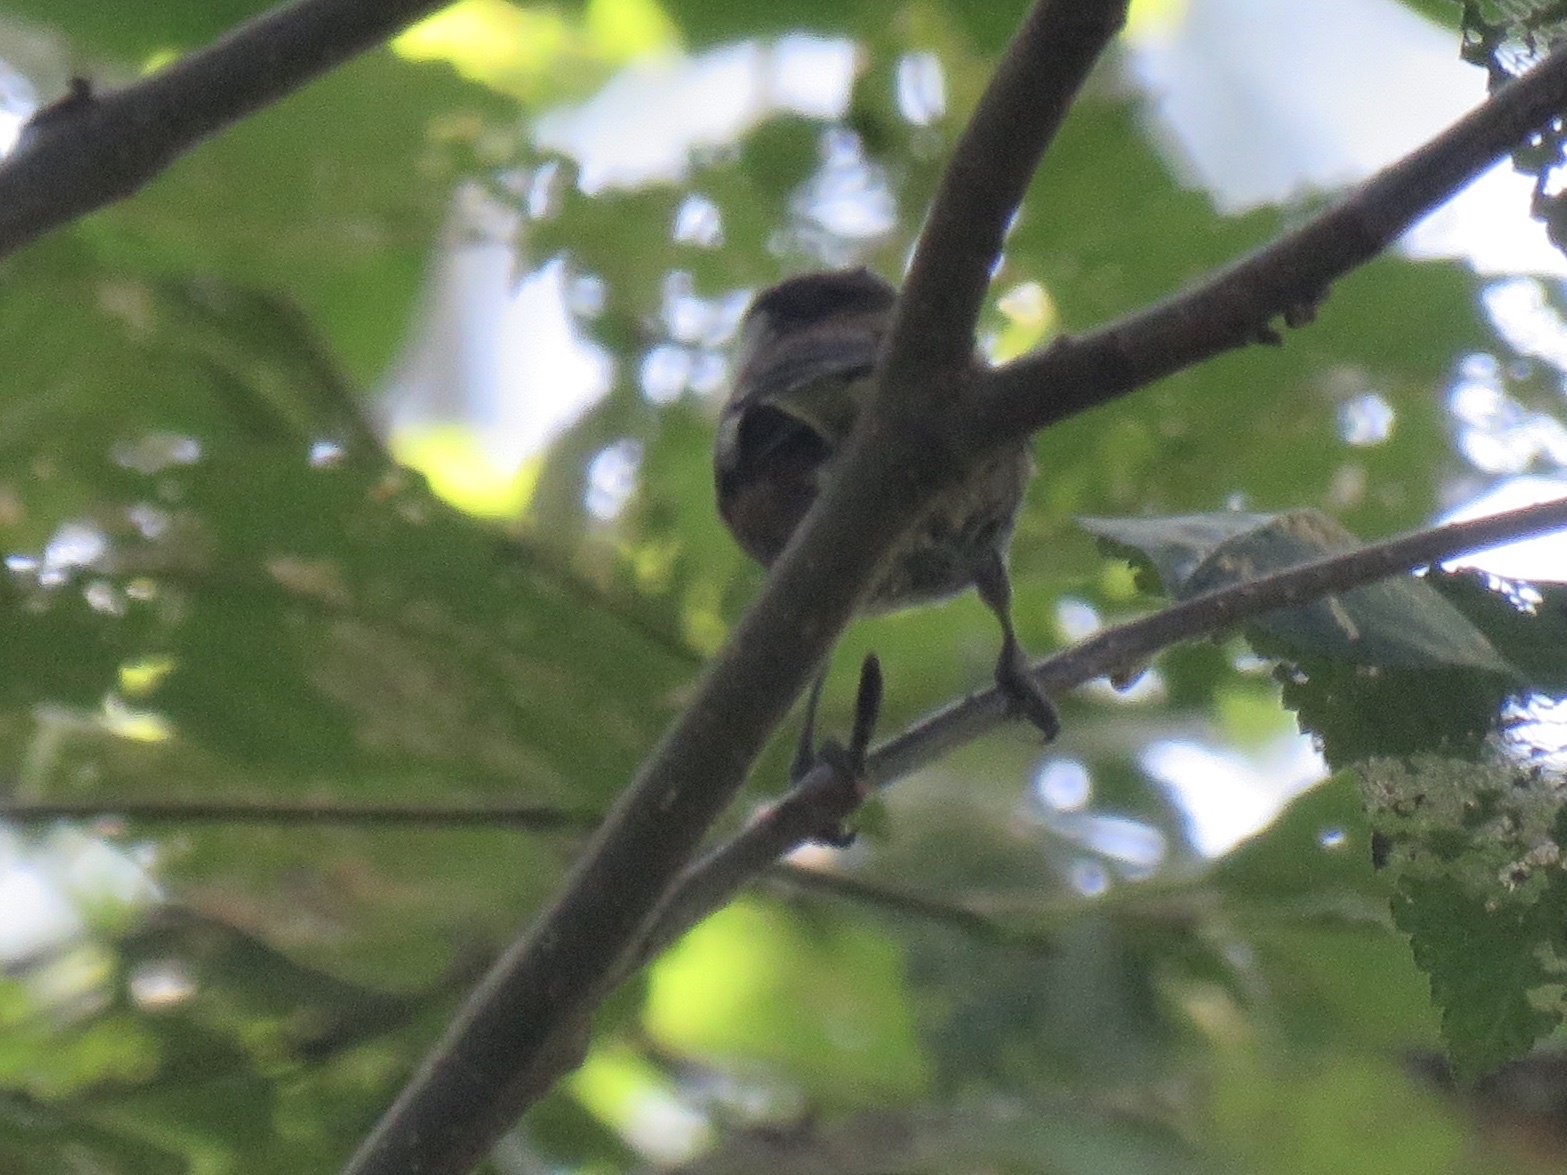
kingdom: Animalia
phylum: Chordata
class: Aves
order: Passeriformes
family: Paridae
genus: Poecile
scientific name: Poecile rufescens
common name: Chestnut-backed chickadee
